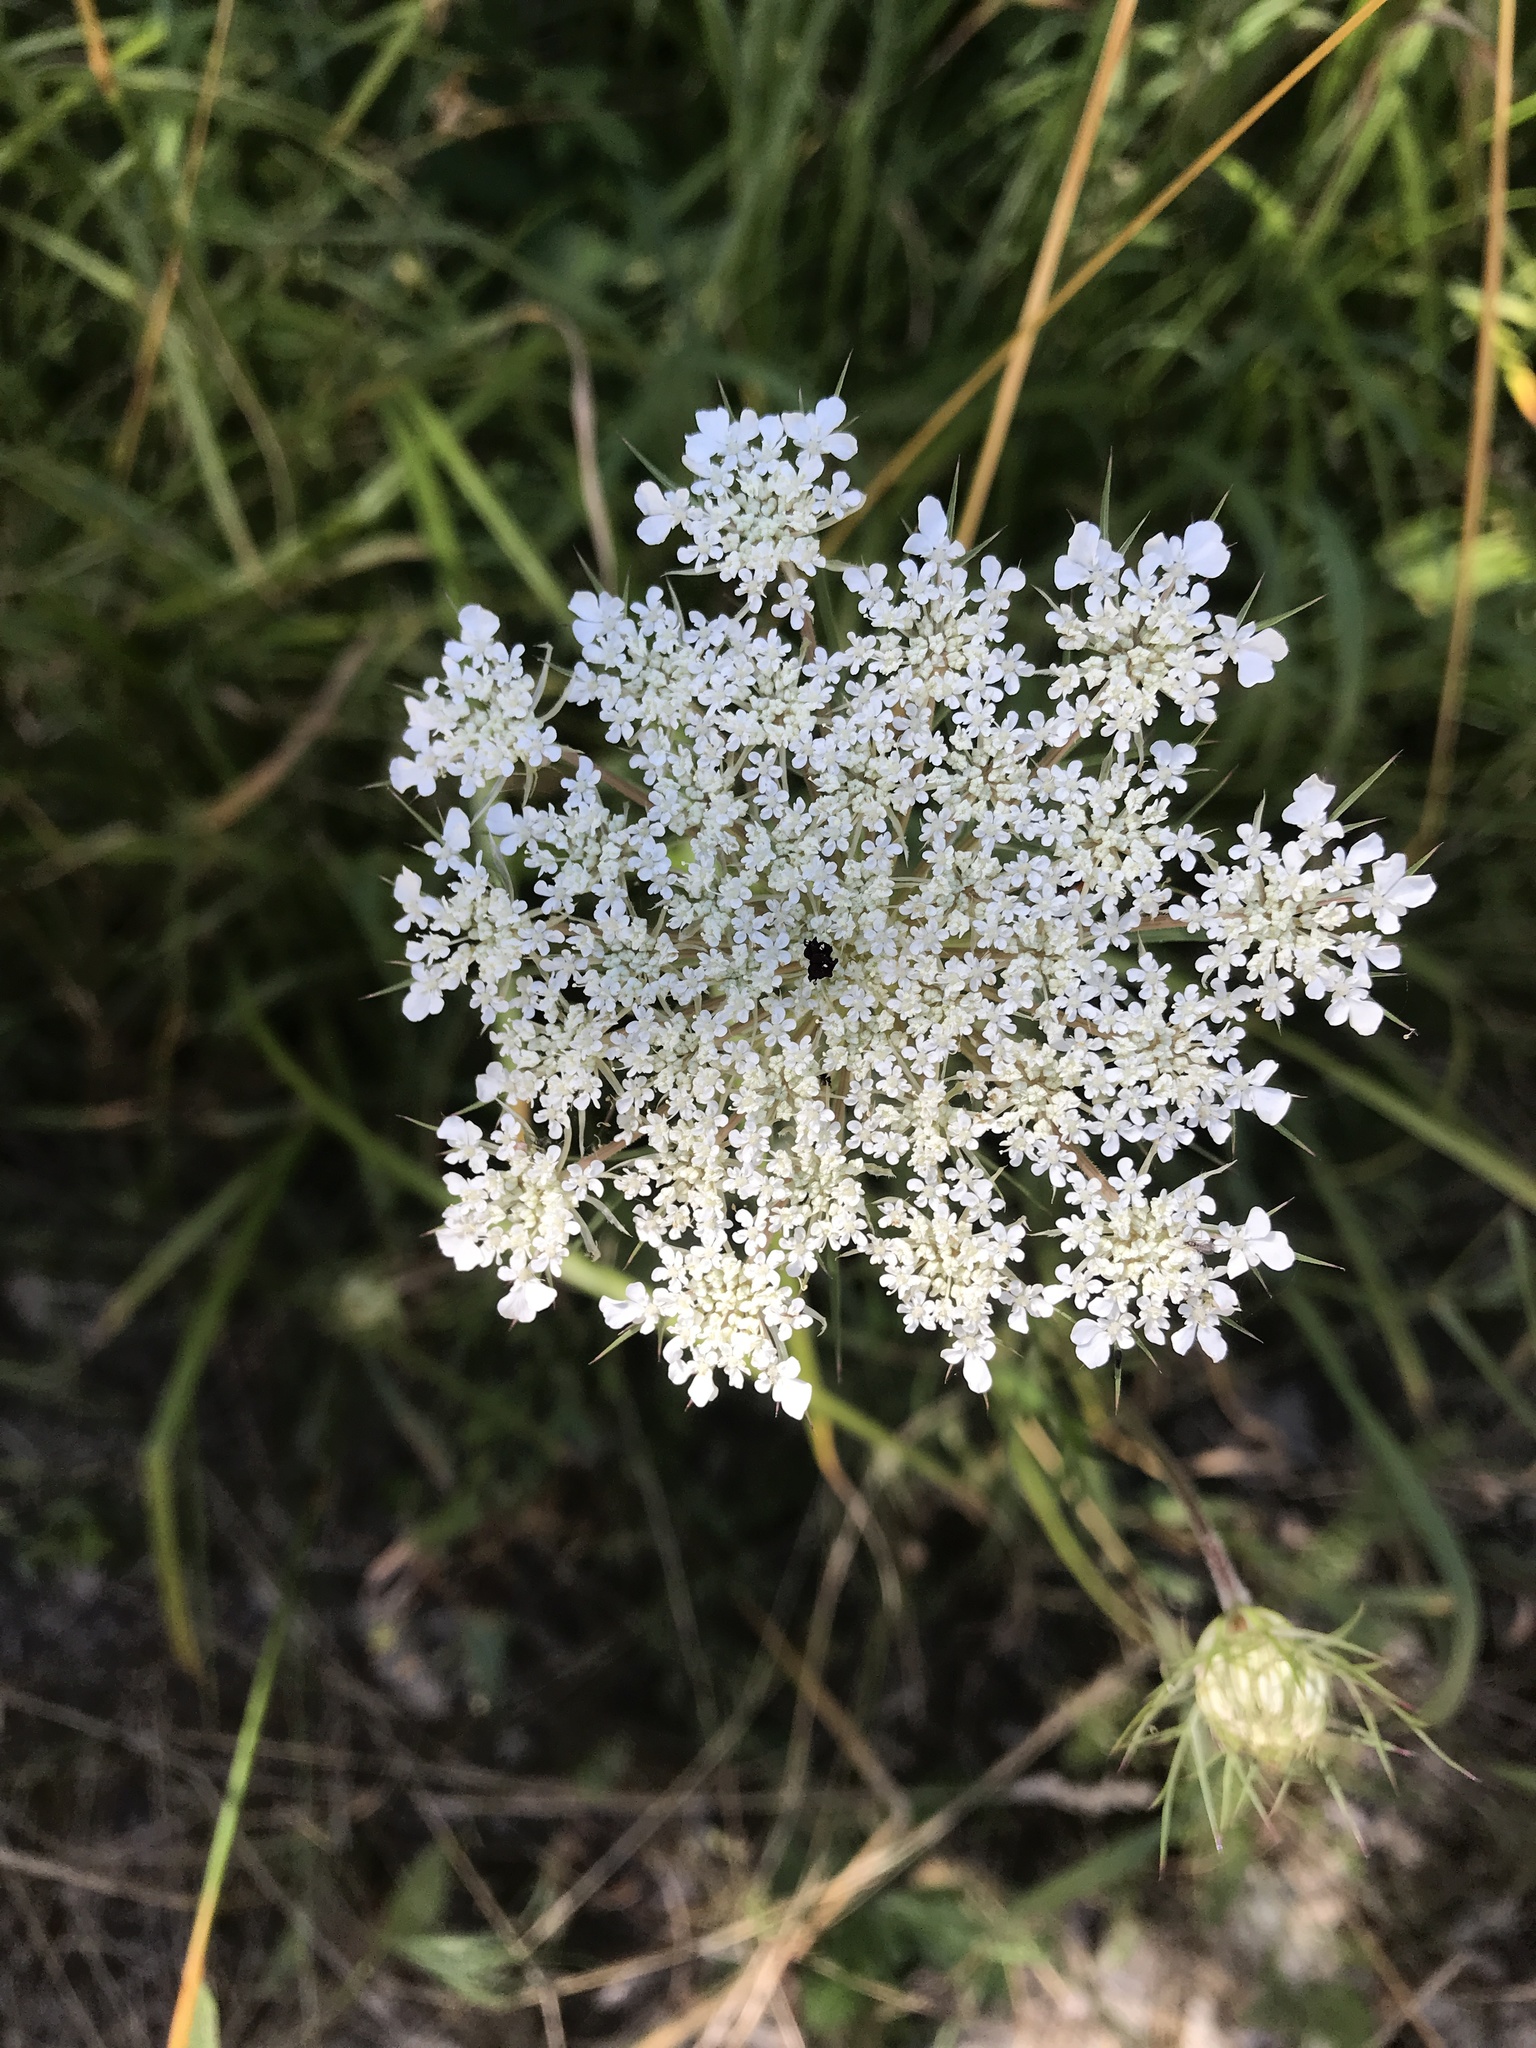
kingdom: Plantae
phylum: Tracheophyta
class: Magnoliopsida
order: Apiales
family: Apiaceae
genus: Daucus
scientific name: Daucus carota
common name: Wild carrot
